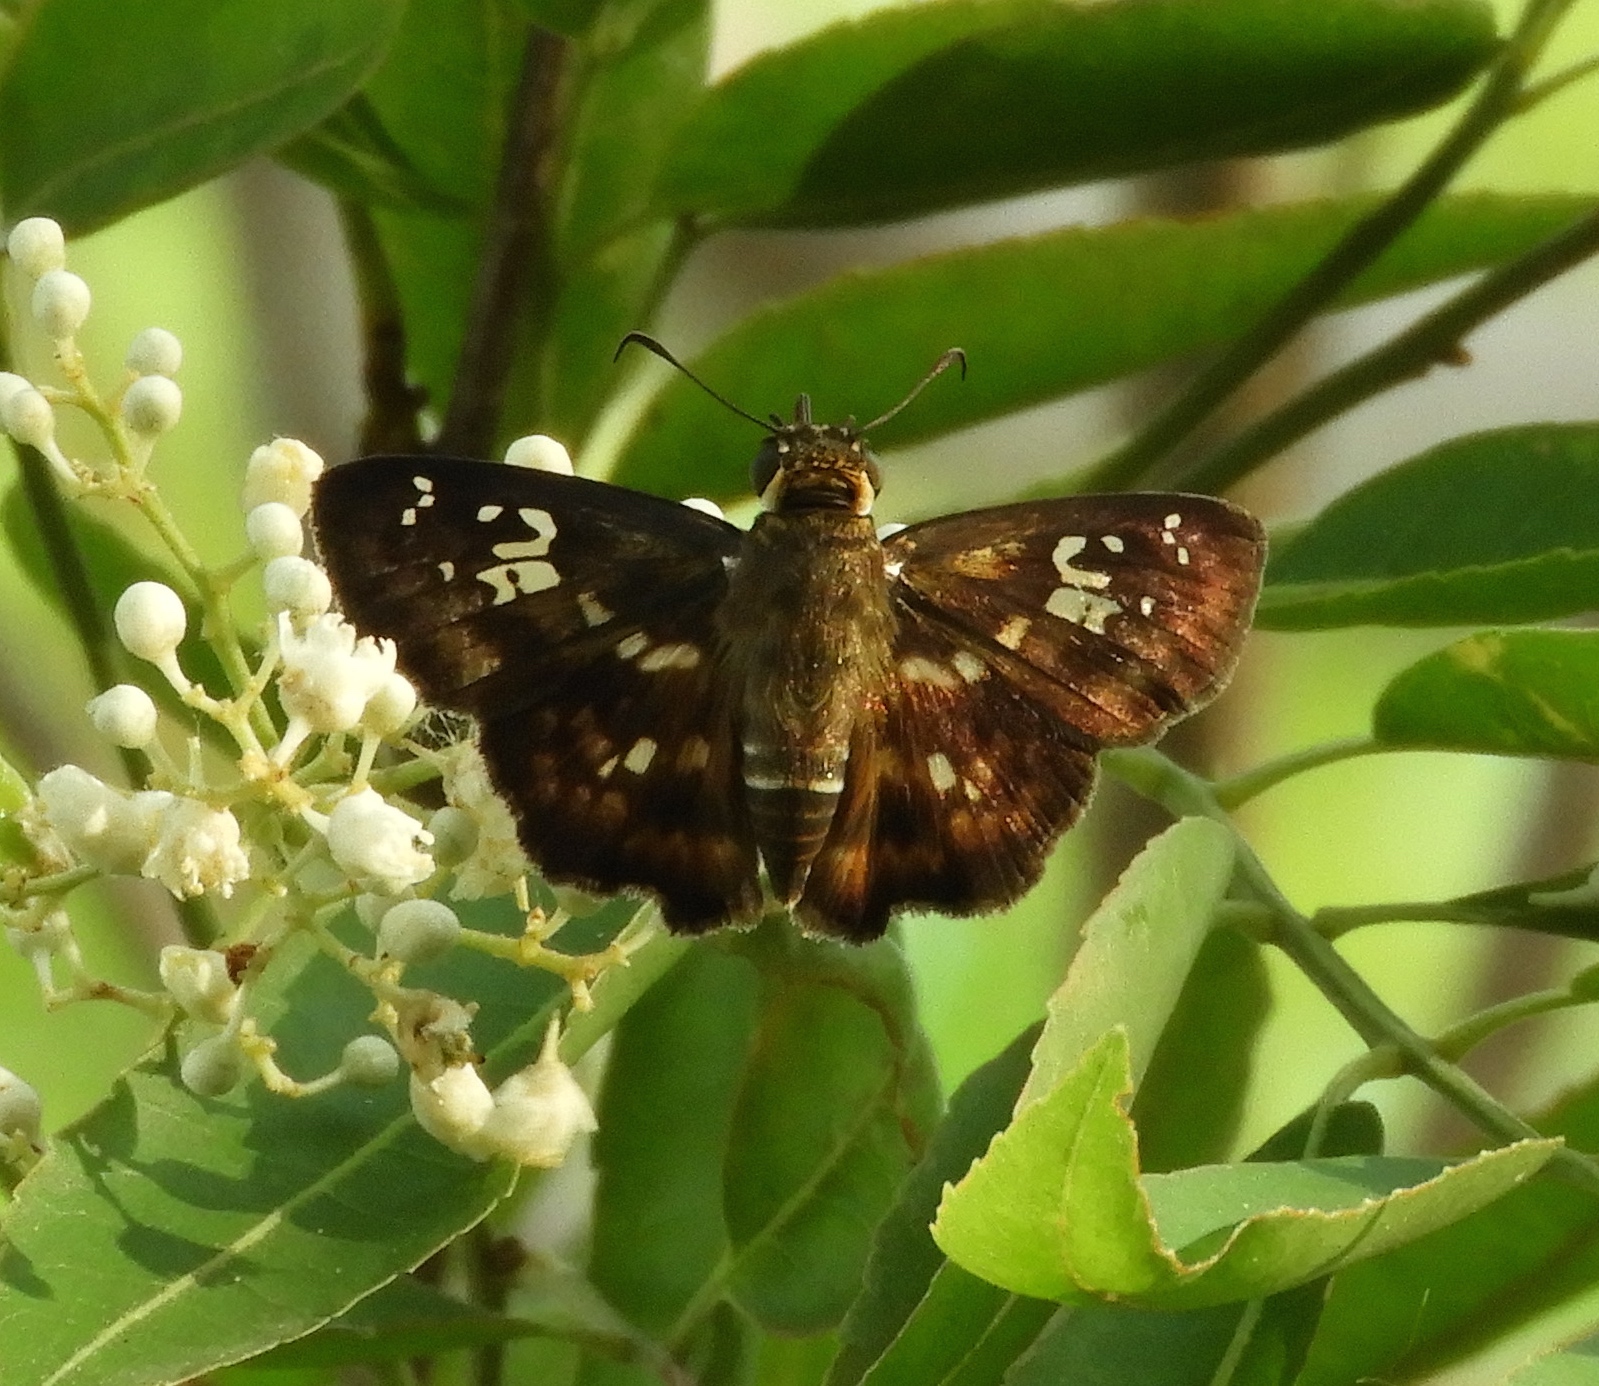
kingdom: Animalia
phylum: Arthropoda
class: Insecta
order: Lepidoptera
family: Hesperiidae
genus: Udranomia
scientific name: Udranomia kikkawai
